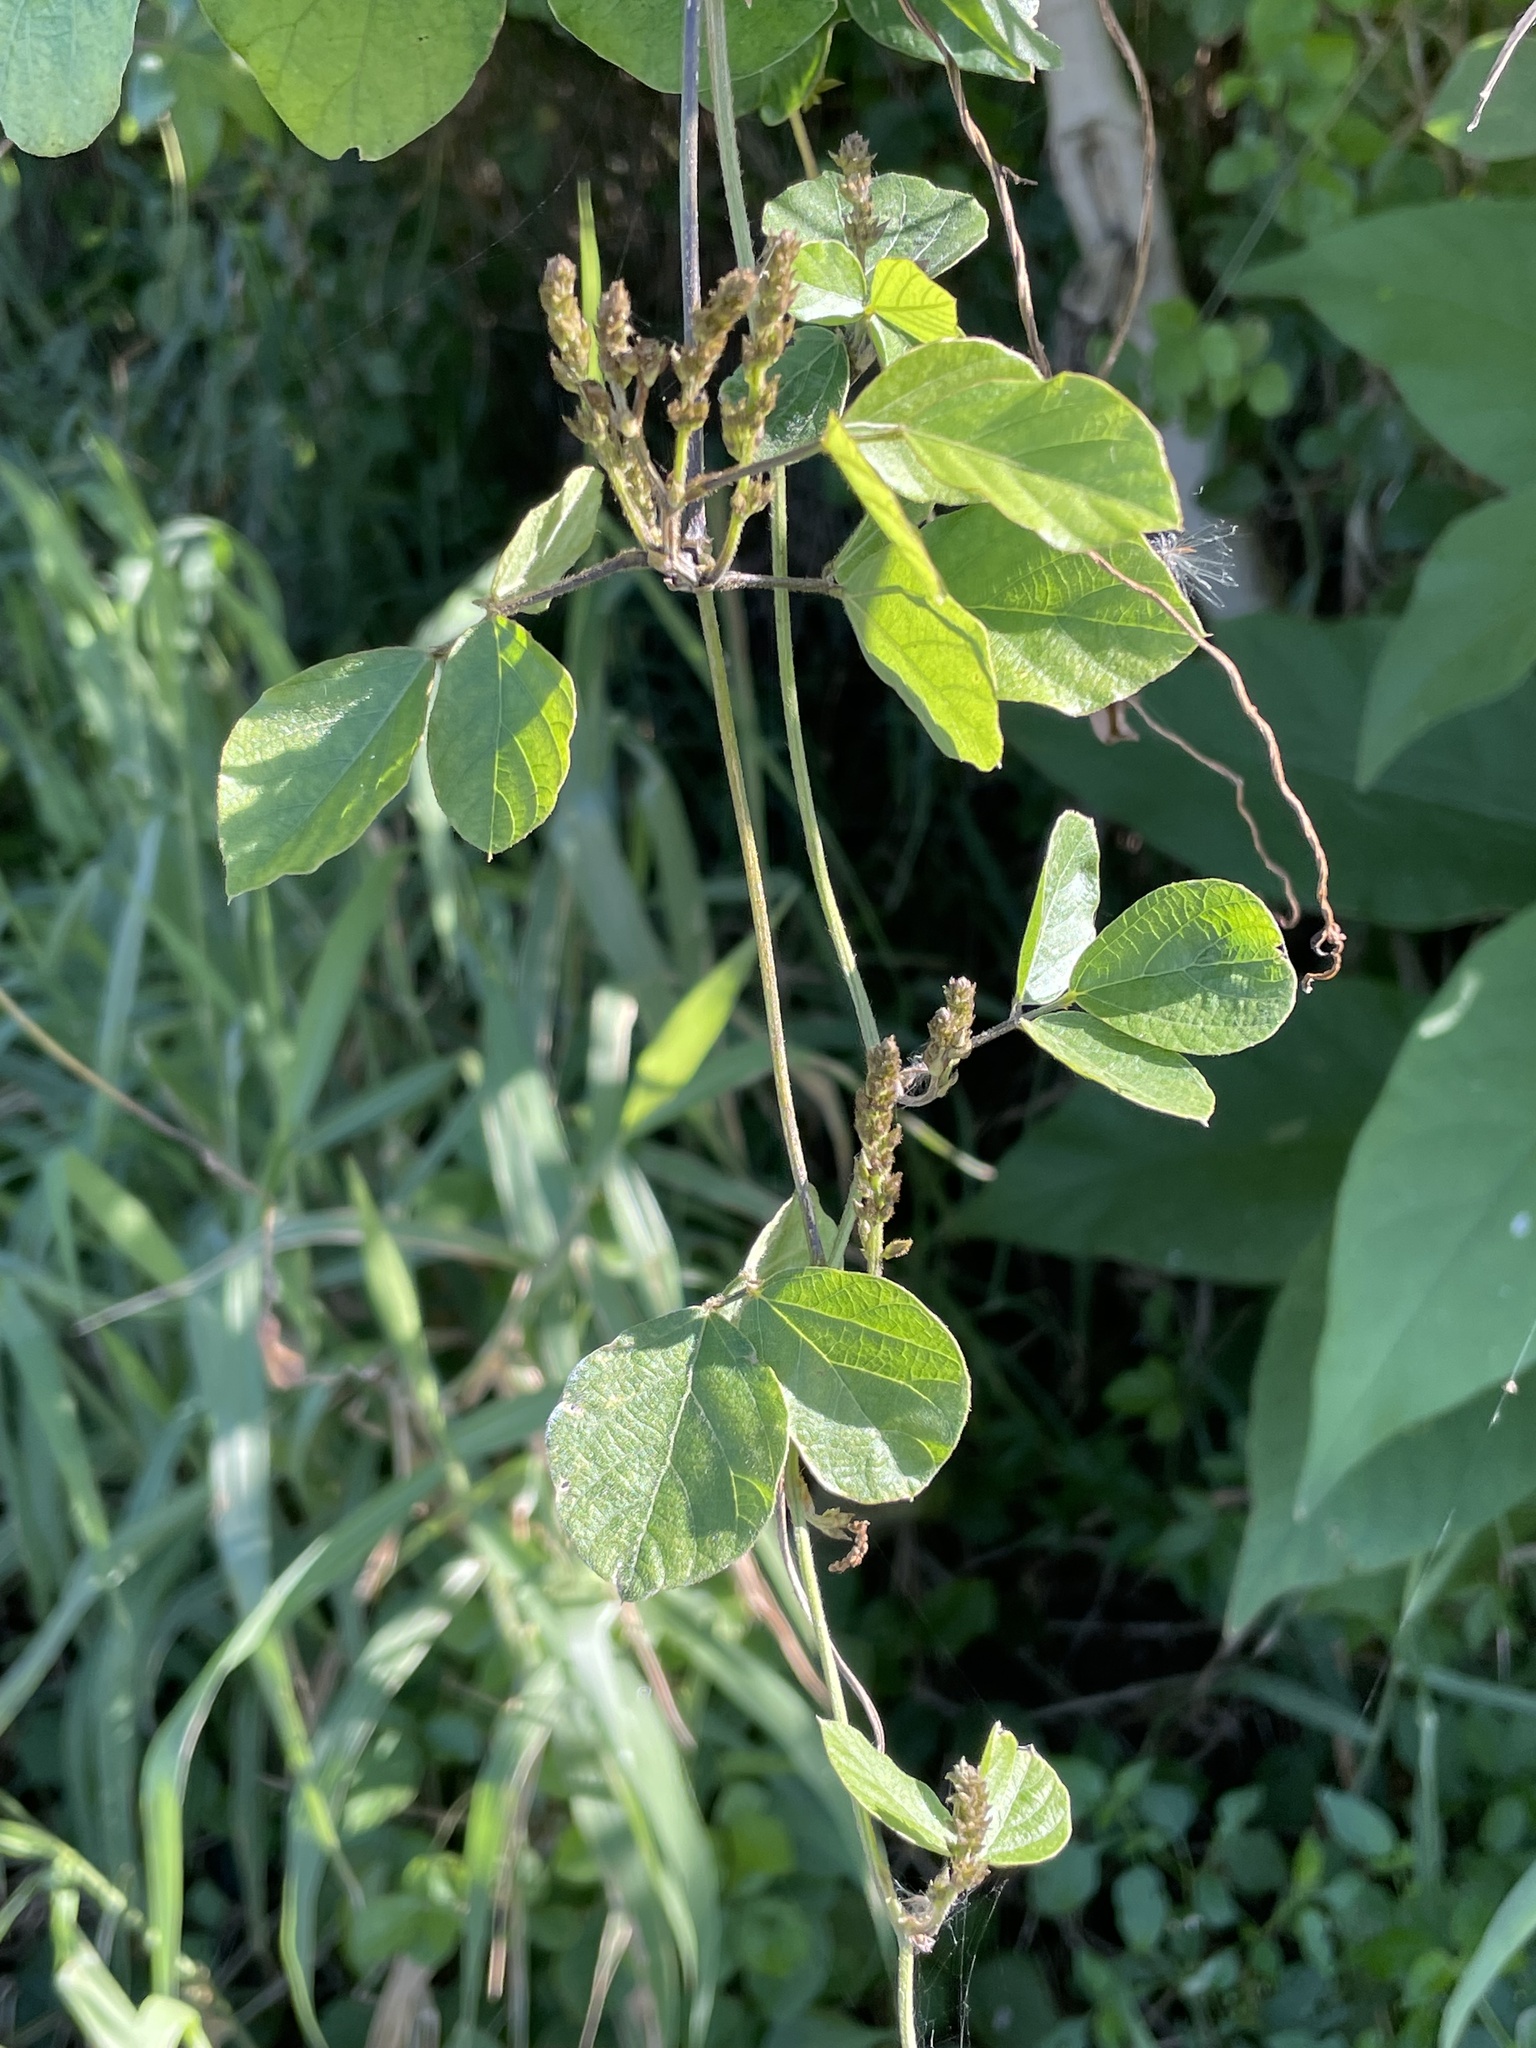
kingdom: Plantae
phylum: Tracheophyta
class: Magnoliopsida
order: Fabales
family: Fabaceae
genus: Neonotonia
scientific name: Neonotonia wightii
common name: Perennial soybean
